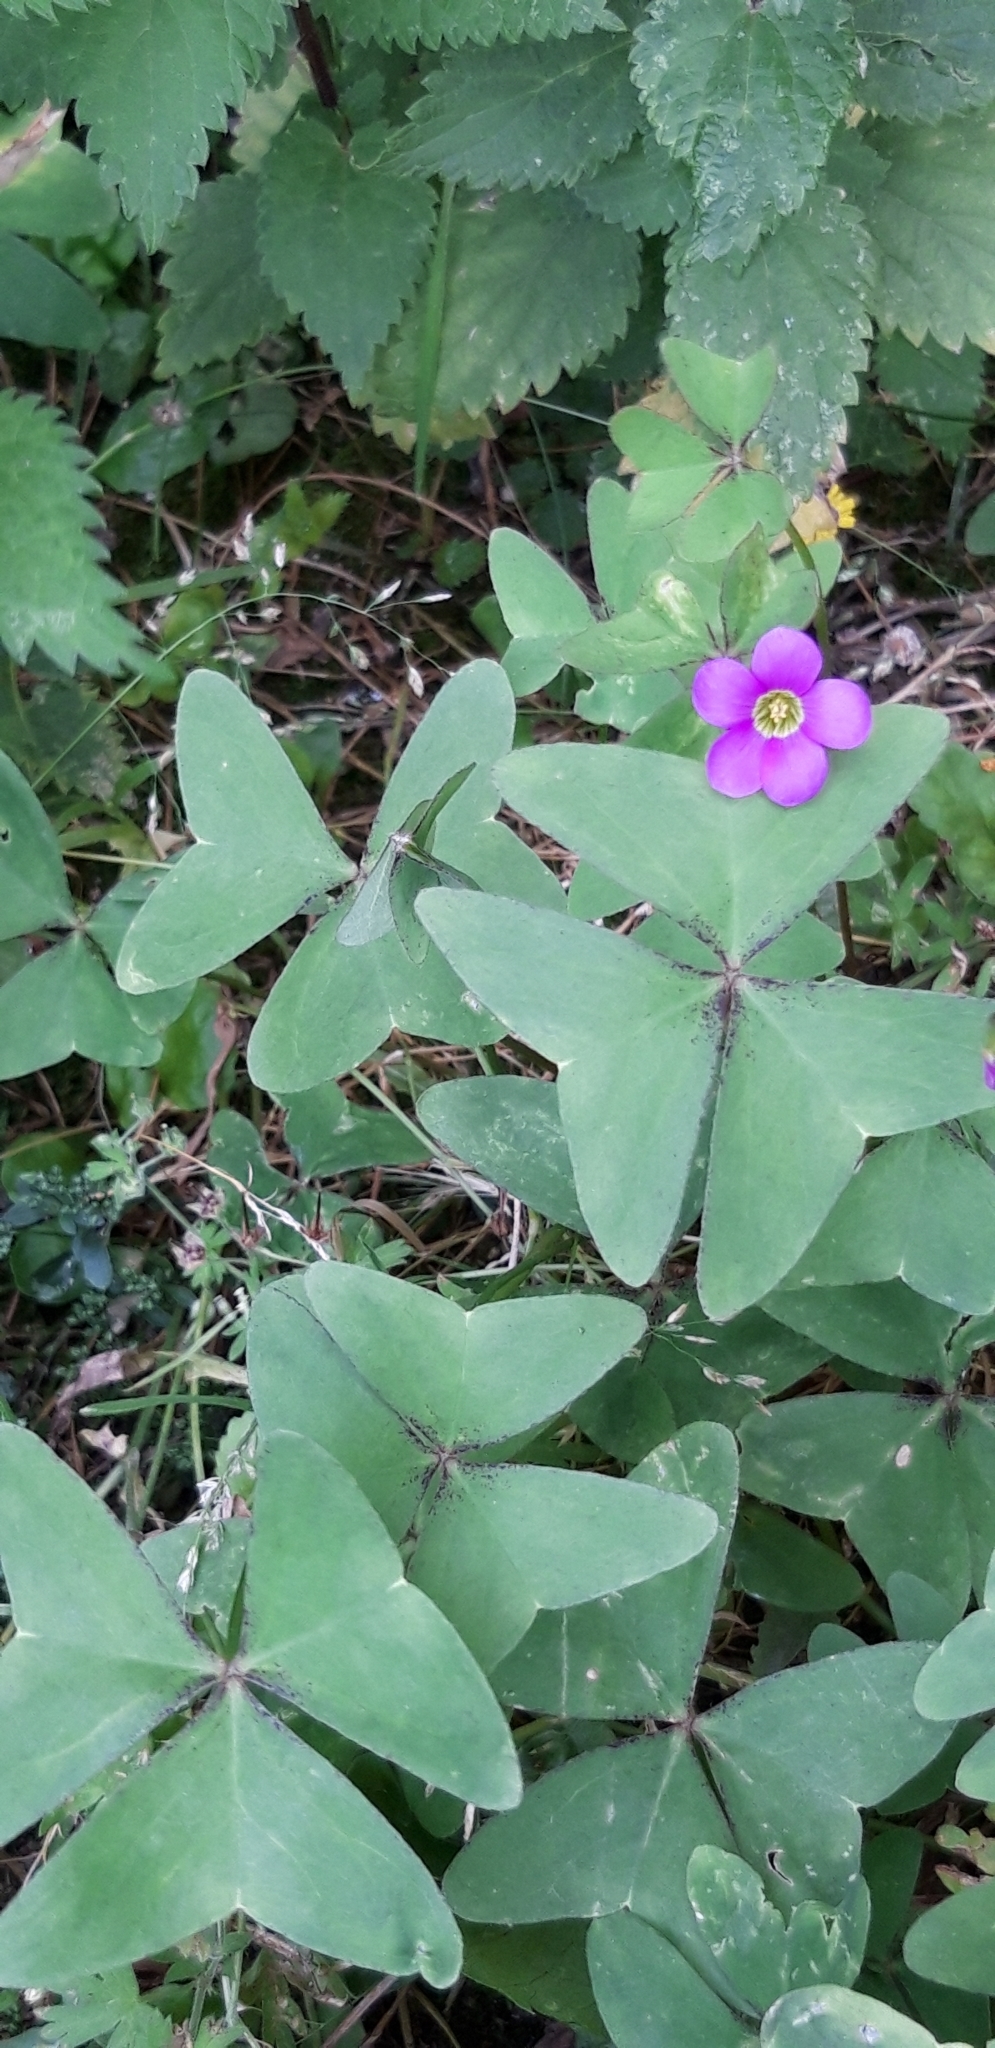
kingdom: Plantae
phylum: Tracheophyta
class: Magnoliopsida
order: Oxalidales
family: Oxalidaceae
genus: Oxalis
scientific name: Oxalis latifolia
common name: Garden pink-sorrel
